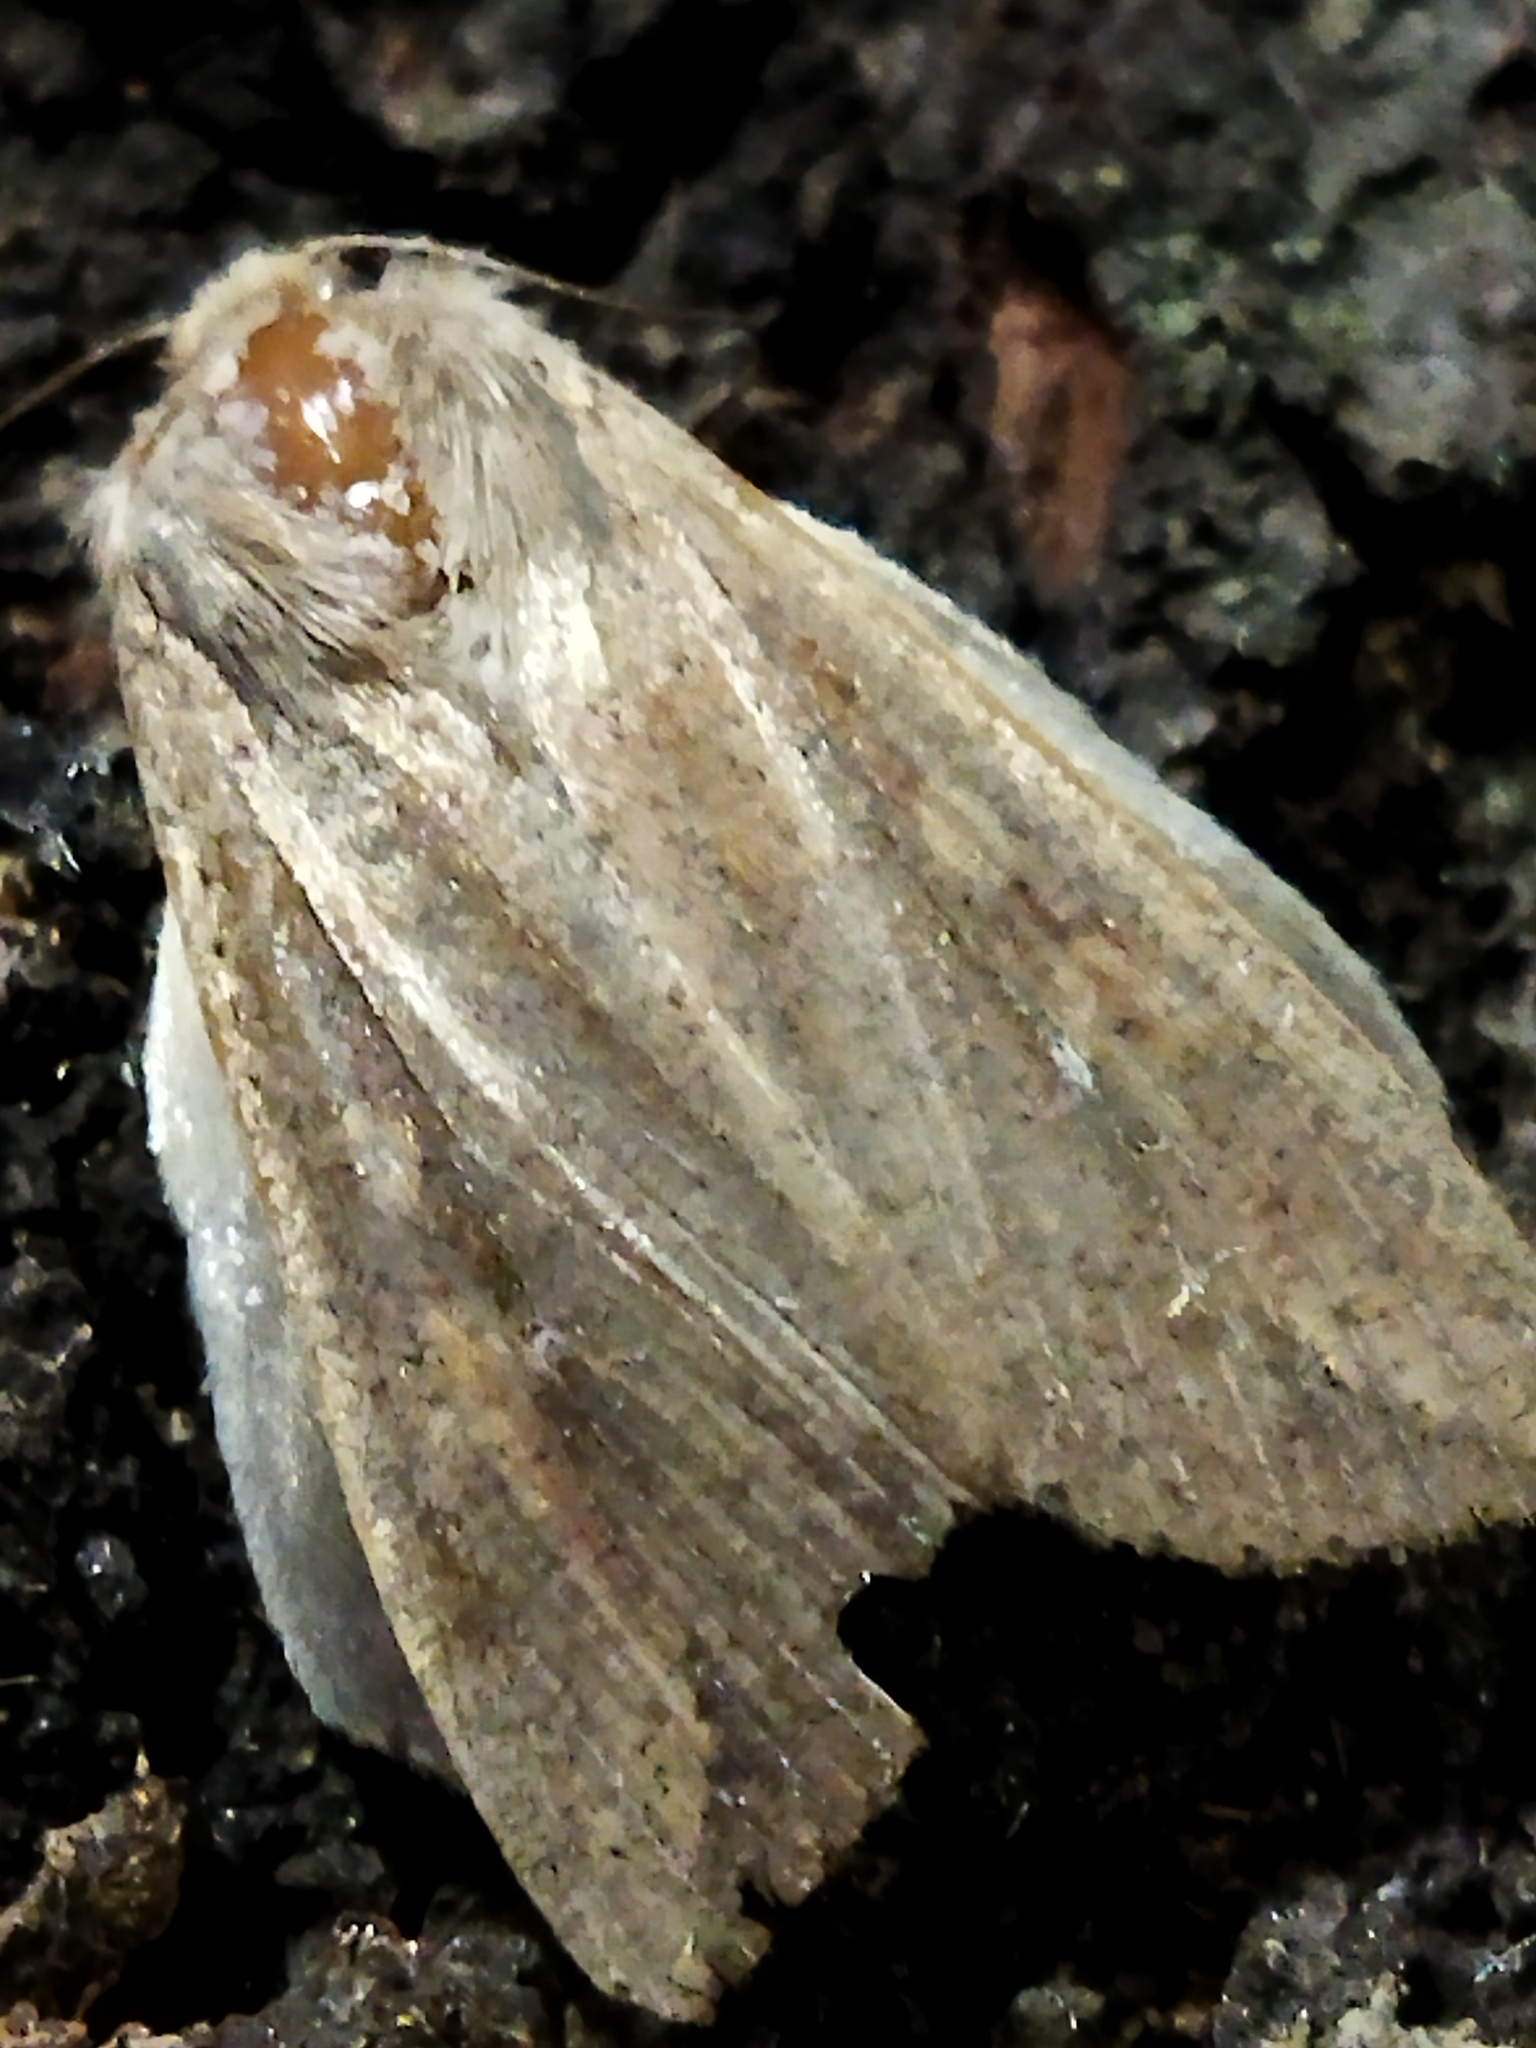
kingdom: Animalia
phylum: Arthropoda
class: Insecta
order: Lepidoptera
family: Noctuidae
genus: Mythimna
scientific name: Mythimna unipuncta
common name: White-speck
